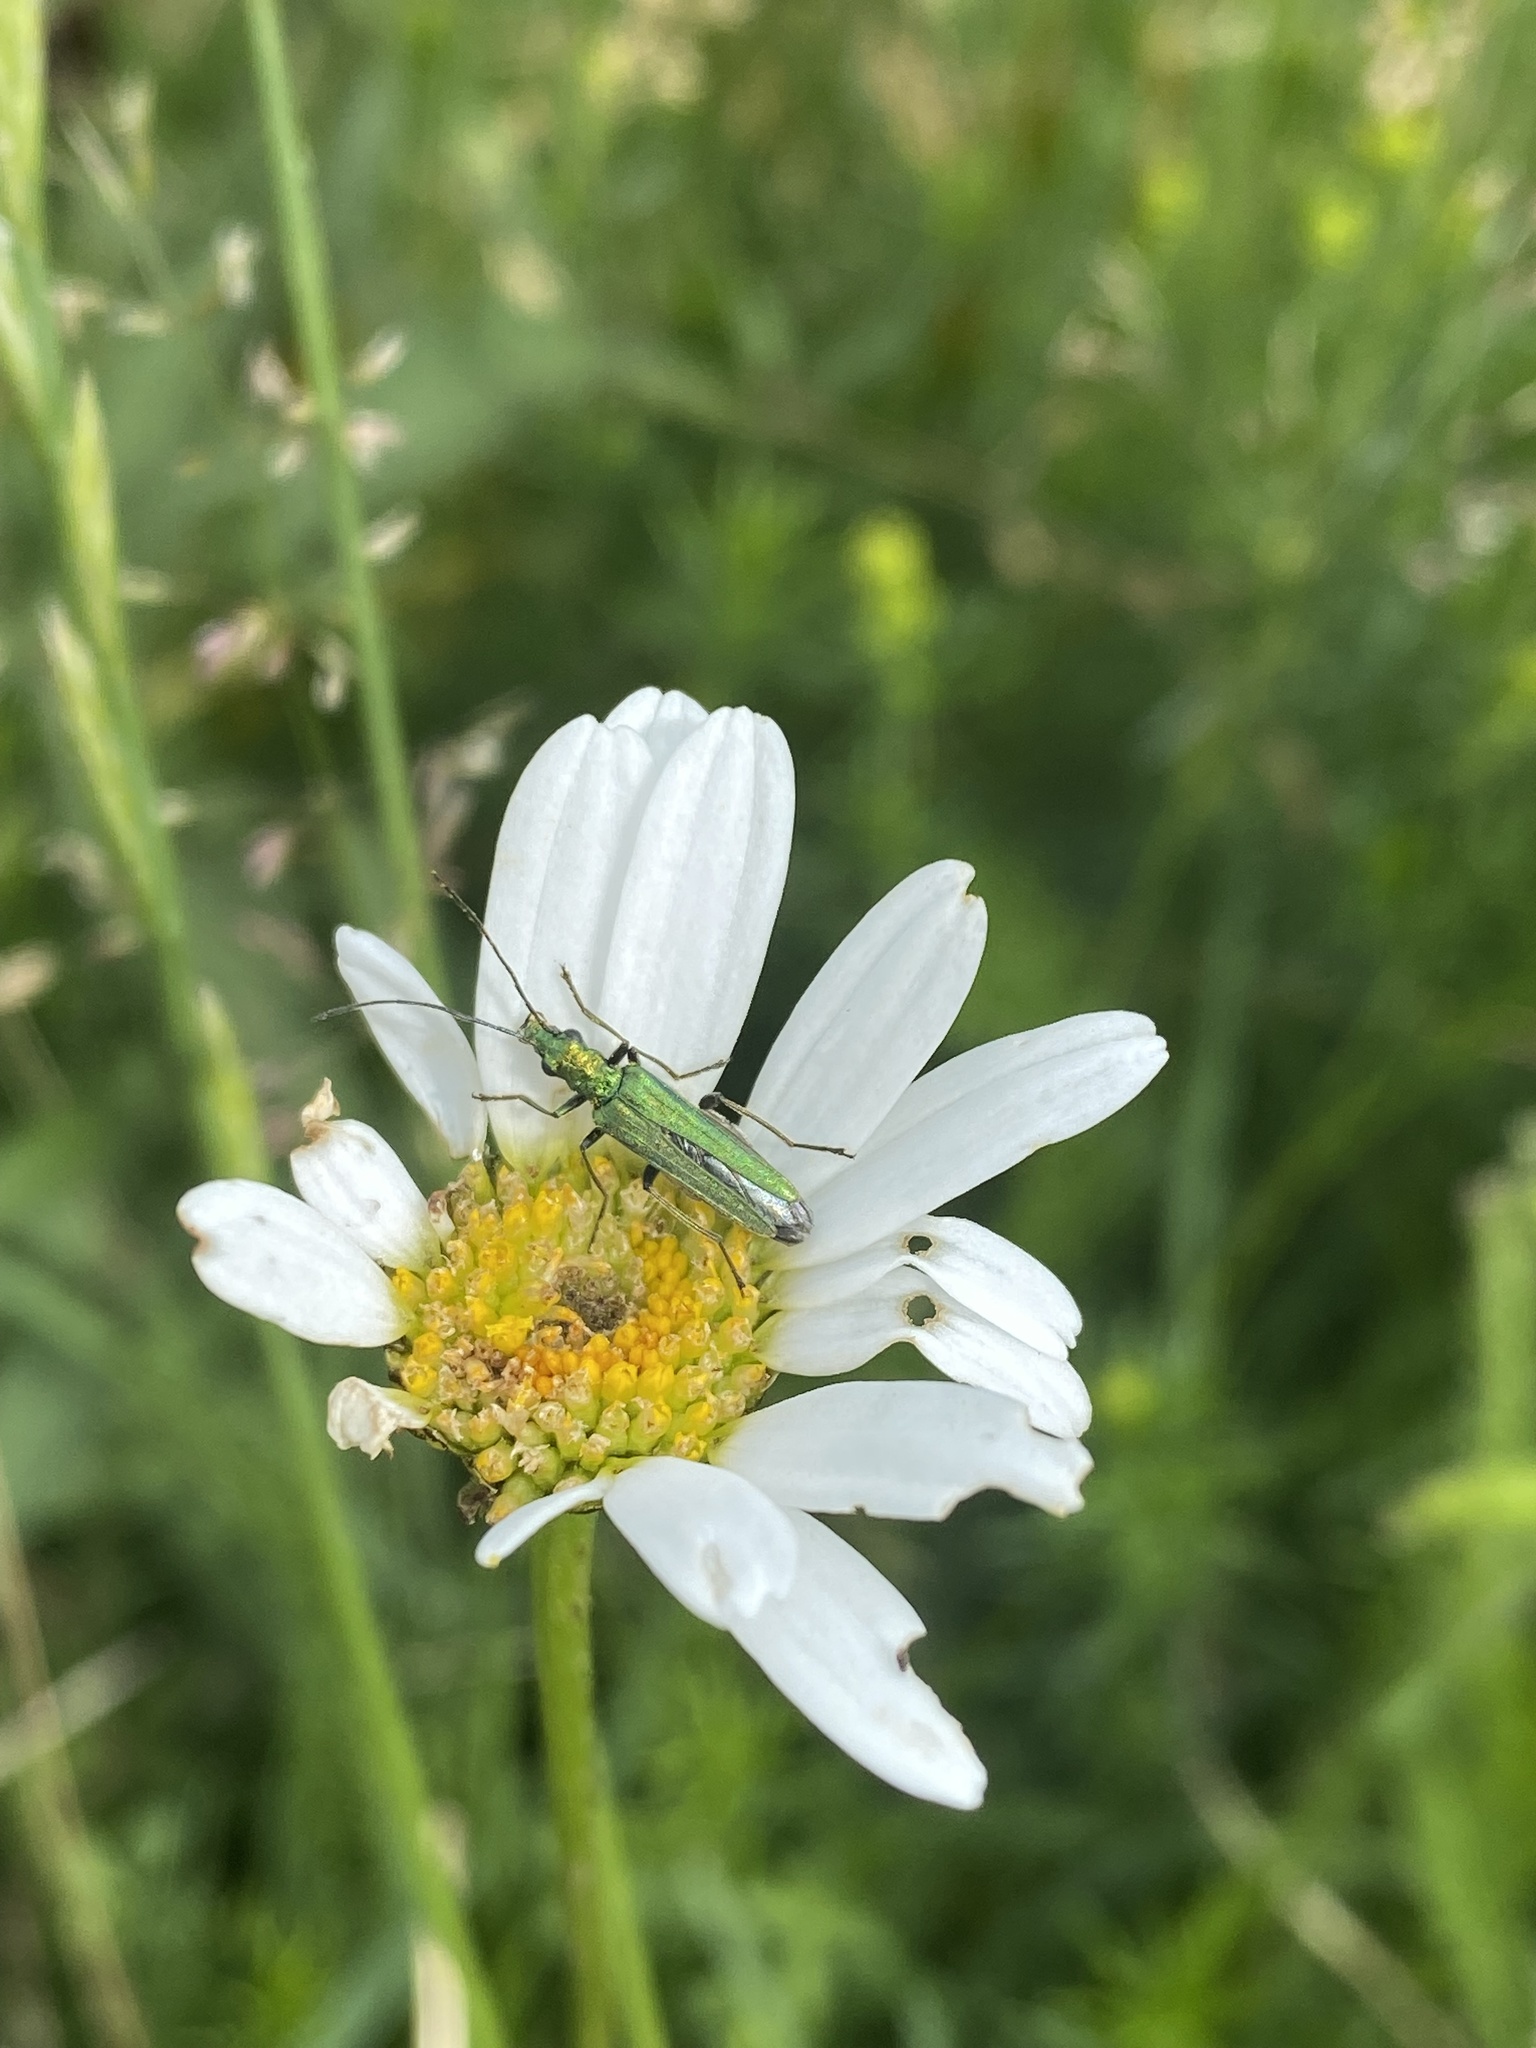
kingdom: Animalia
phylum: Arthropoda
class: Insecta
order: Coleoptera
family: Oedemeridae
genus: Oedemera
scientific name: Oedemera nobilis
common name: Swollen-thighed beetle
